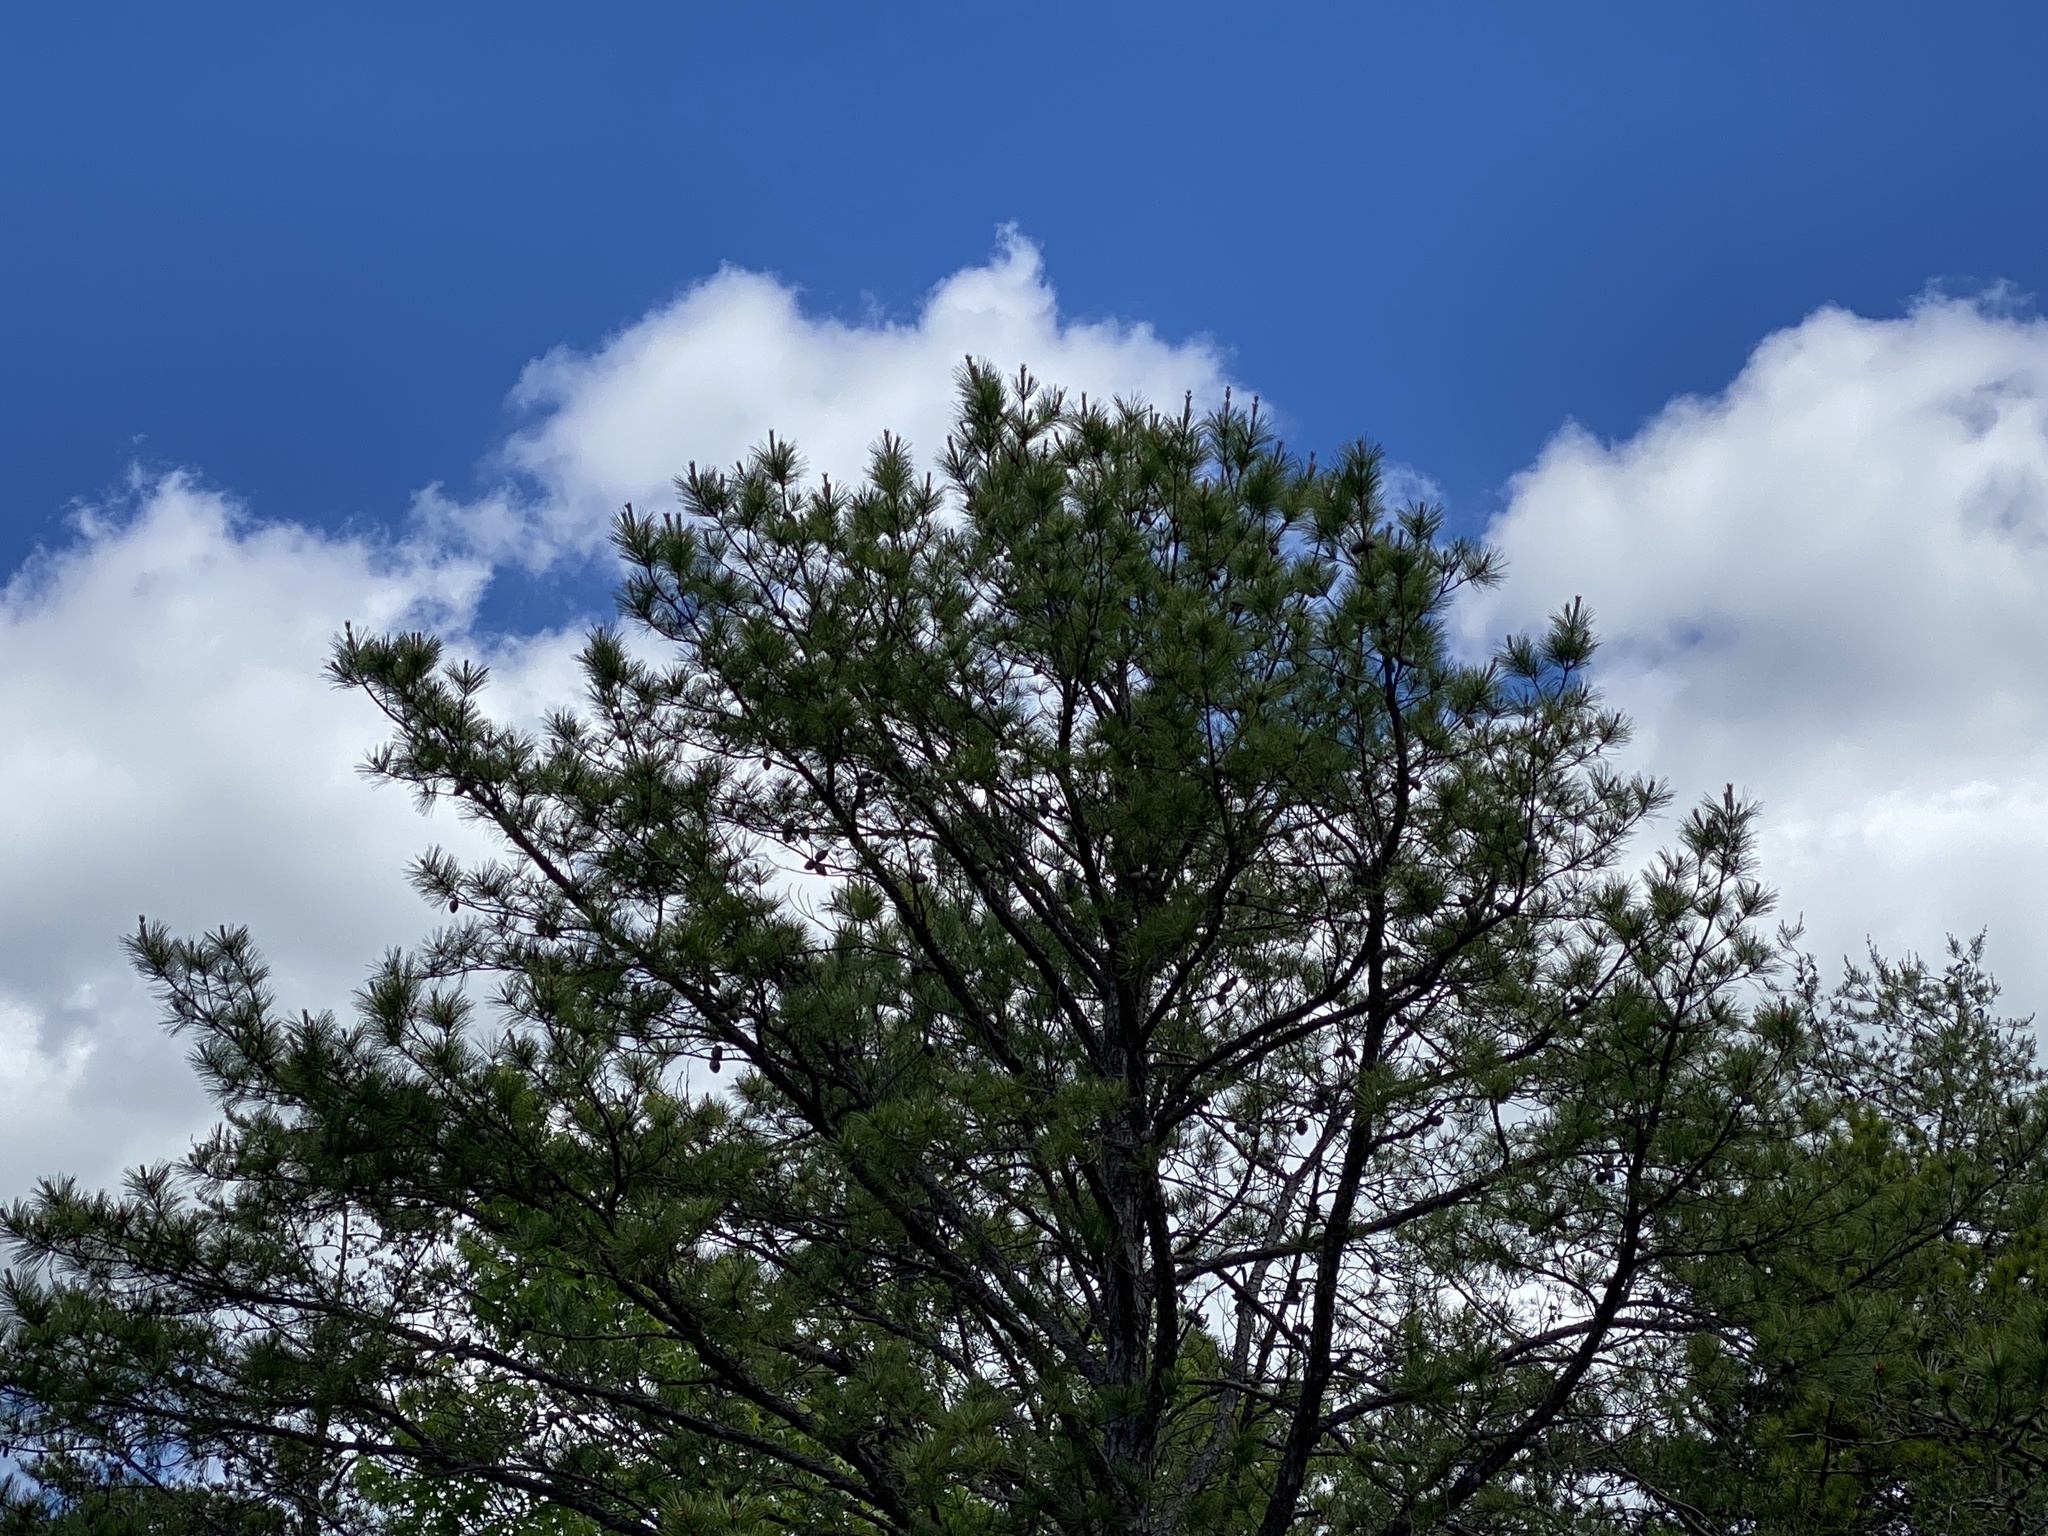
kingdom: Plantae
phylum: Tracheophyta
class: Pinopsida
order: Pinales
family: Pinaceae
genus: Pinus
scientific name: Pinus echinata
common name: Shortleaf pine
